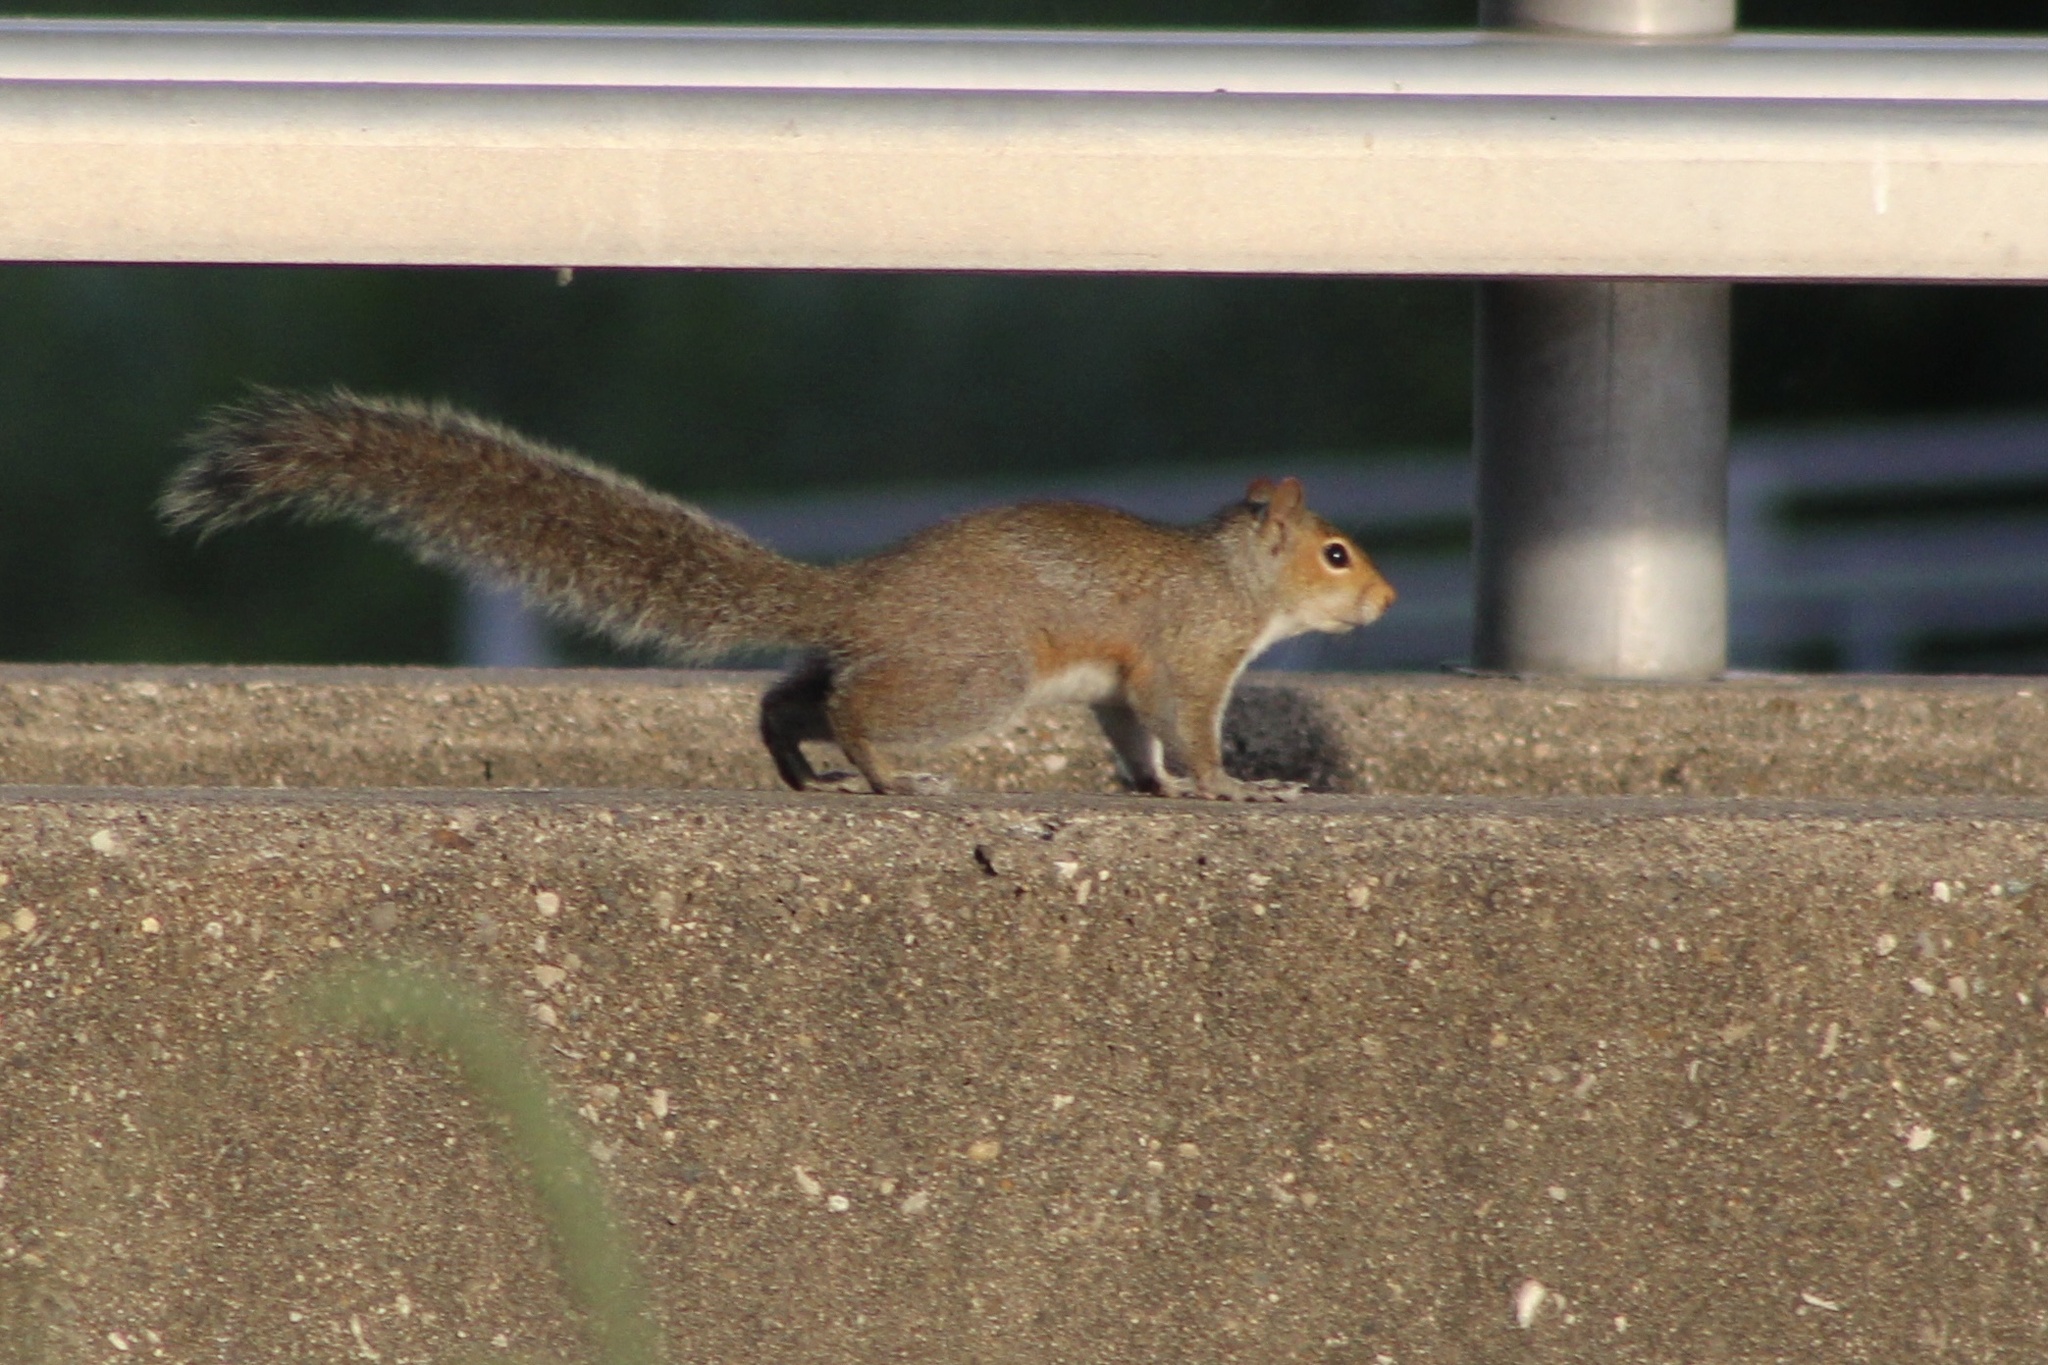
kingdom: Animalia
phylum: Chordata
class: Mammalia
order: Rodentia
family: Sciuridae
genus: Sciurus
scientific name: Sciurus carolinensis
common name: Eastern gray squirrel
